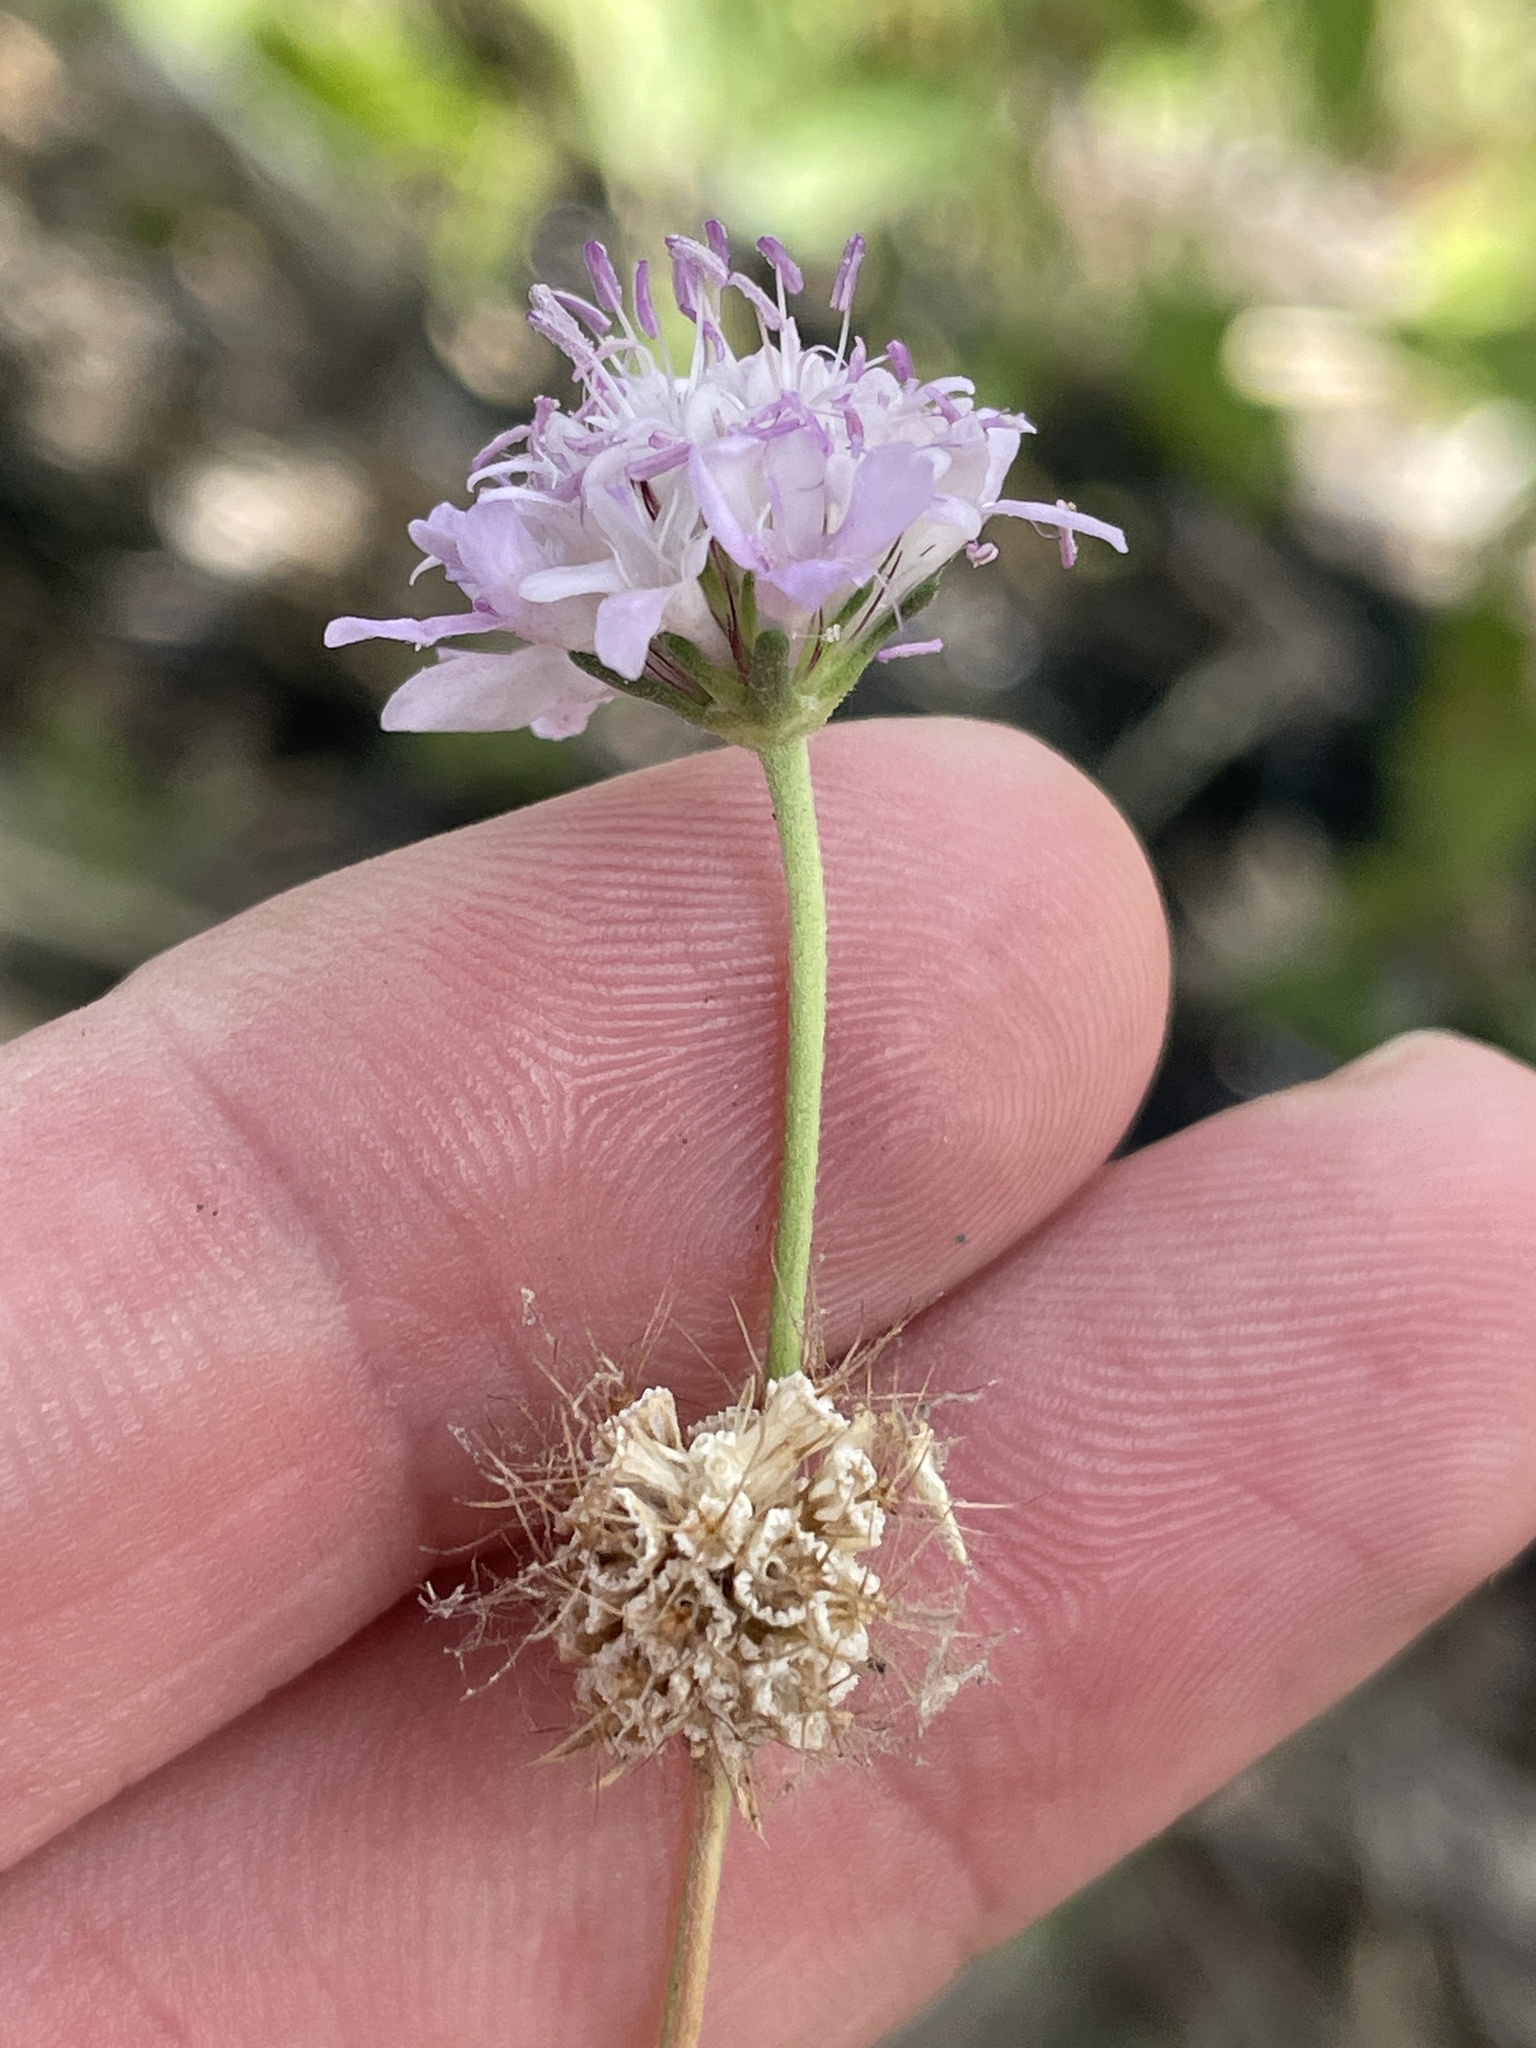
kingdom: Plantae
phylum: Tracheophyta
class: Magnoliopsida
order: Dipsacales
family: Caprifoliaceae
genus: Sixalix
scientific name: Sixalix atropurpurea
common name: Sweet scabious
